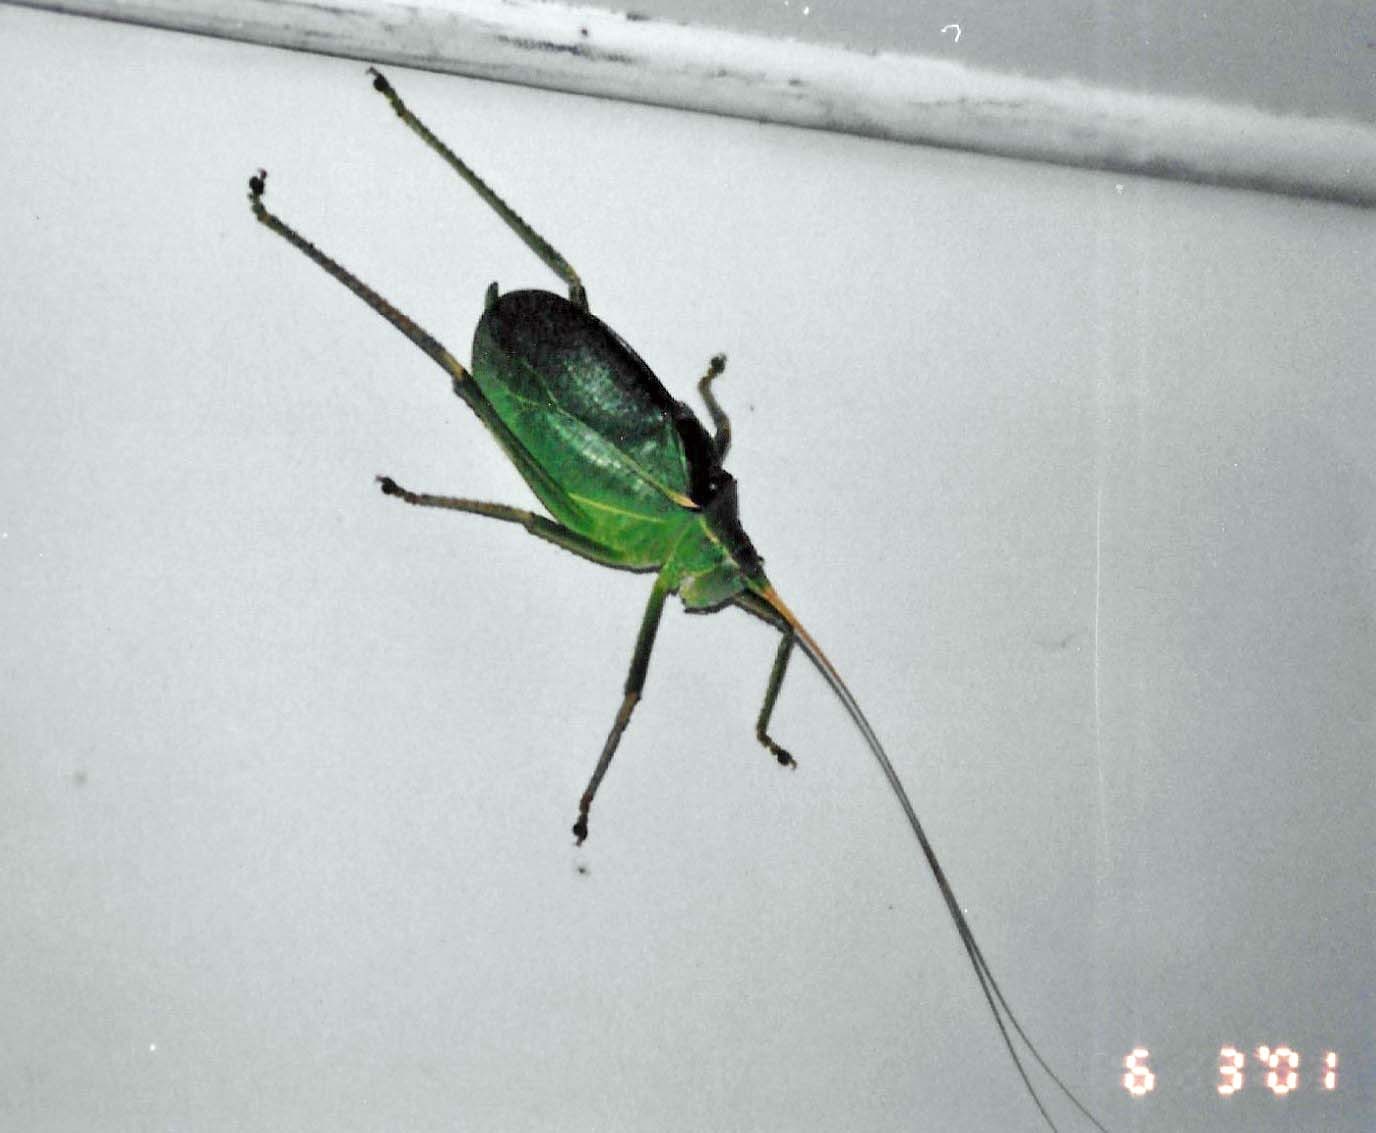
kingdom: Animalia
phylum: Arthropoda
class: Insecta
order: Orthoptera
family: Tettigoniidae
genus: Paracyrtophyllus
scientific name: Paracyrtophyllus robustus
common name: Central texas leaf katydid
